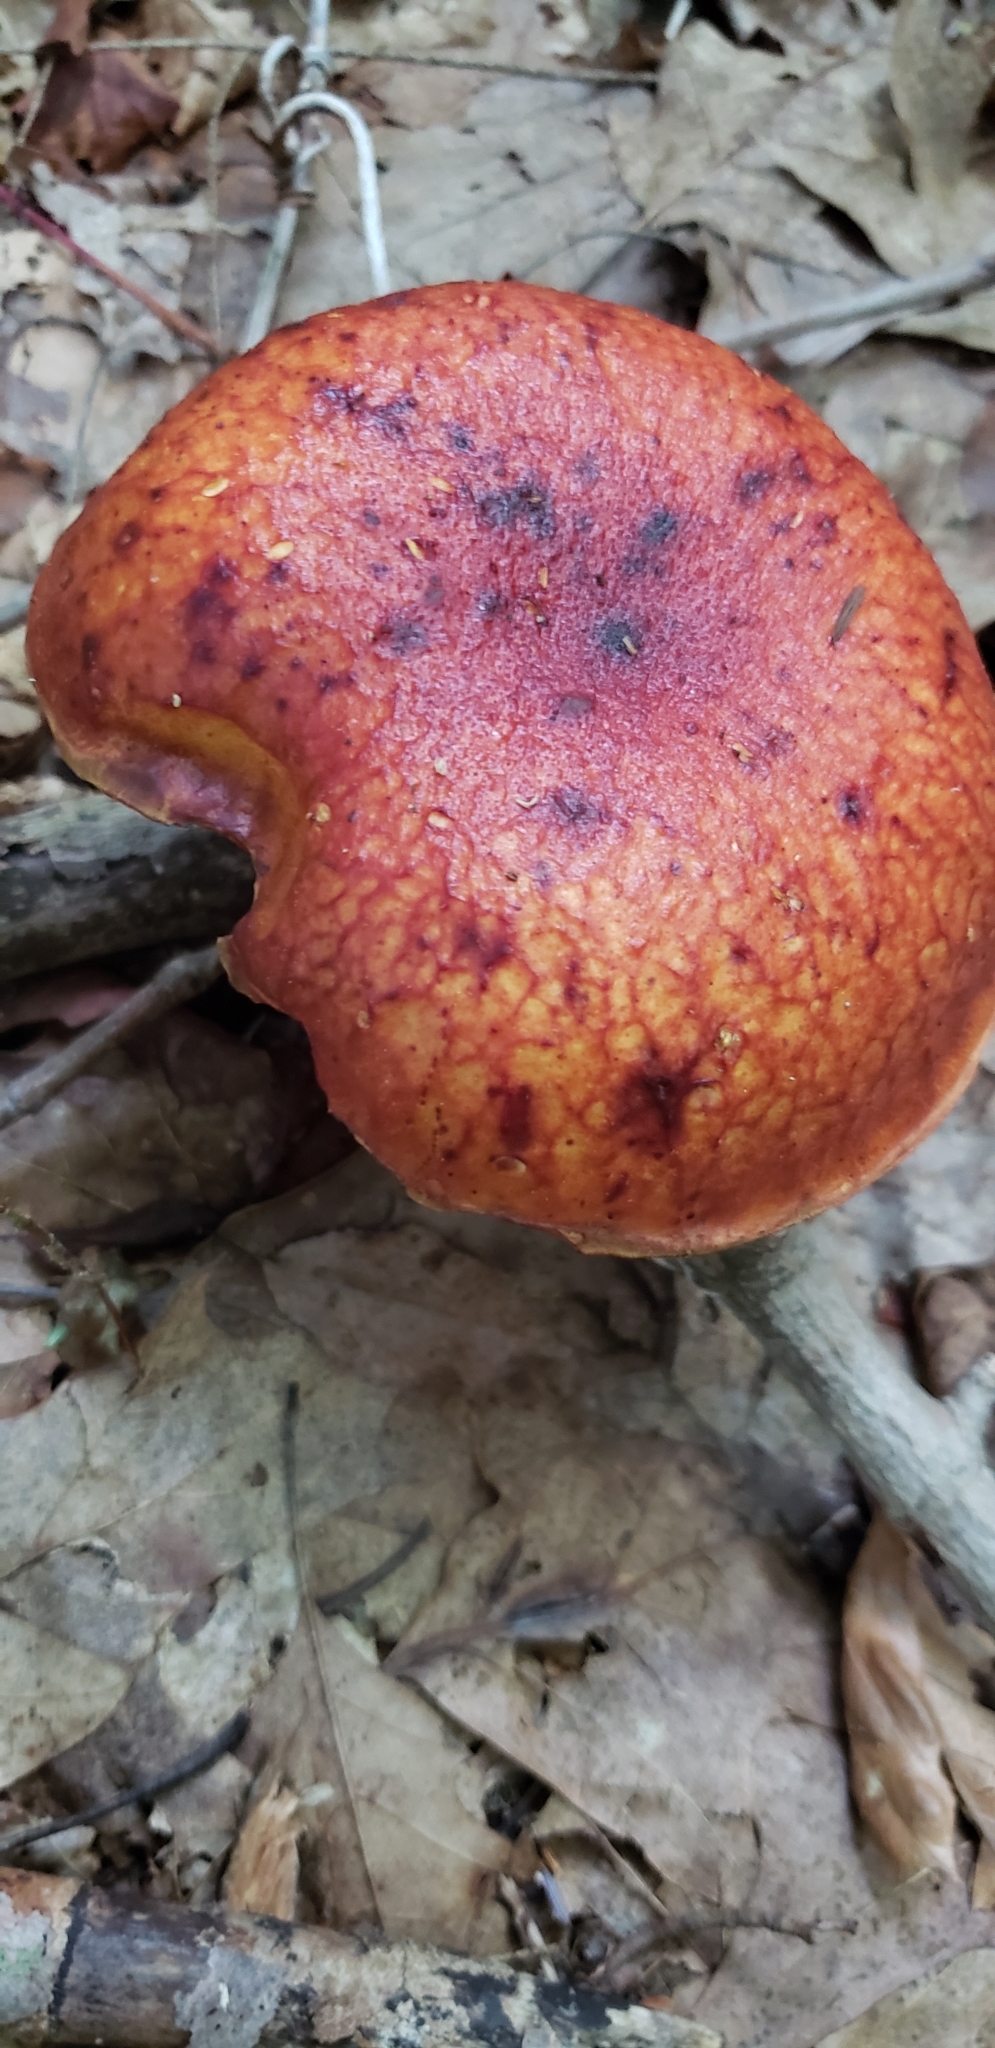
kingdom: Fungi
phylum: Basidiomycota
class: Agaricomycetes
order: Boletales
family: Boletaceae
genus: Butyriboletus
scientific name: Butyriboletus frostii
